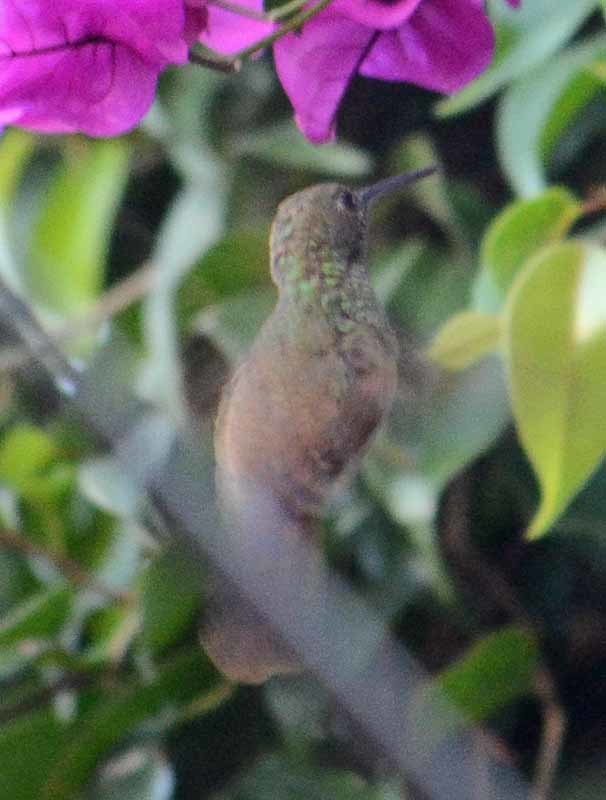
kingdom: Animalia
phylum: Chordata
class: Aves
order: Apodiformes
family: Trochilidae
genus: Saucerottia
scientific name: Saucerottia beryllina
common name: Berylline hummingbird
